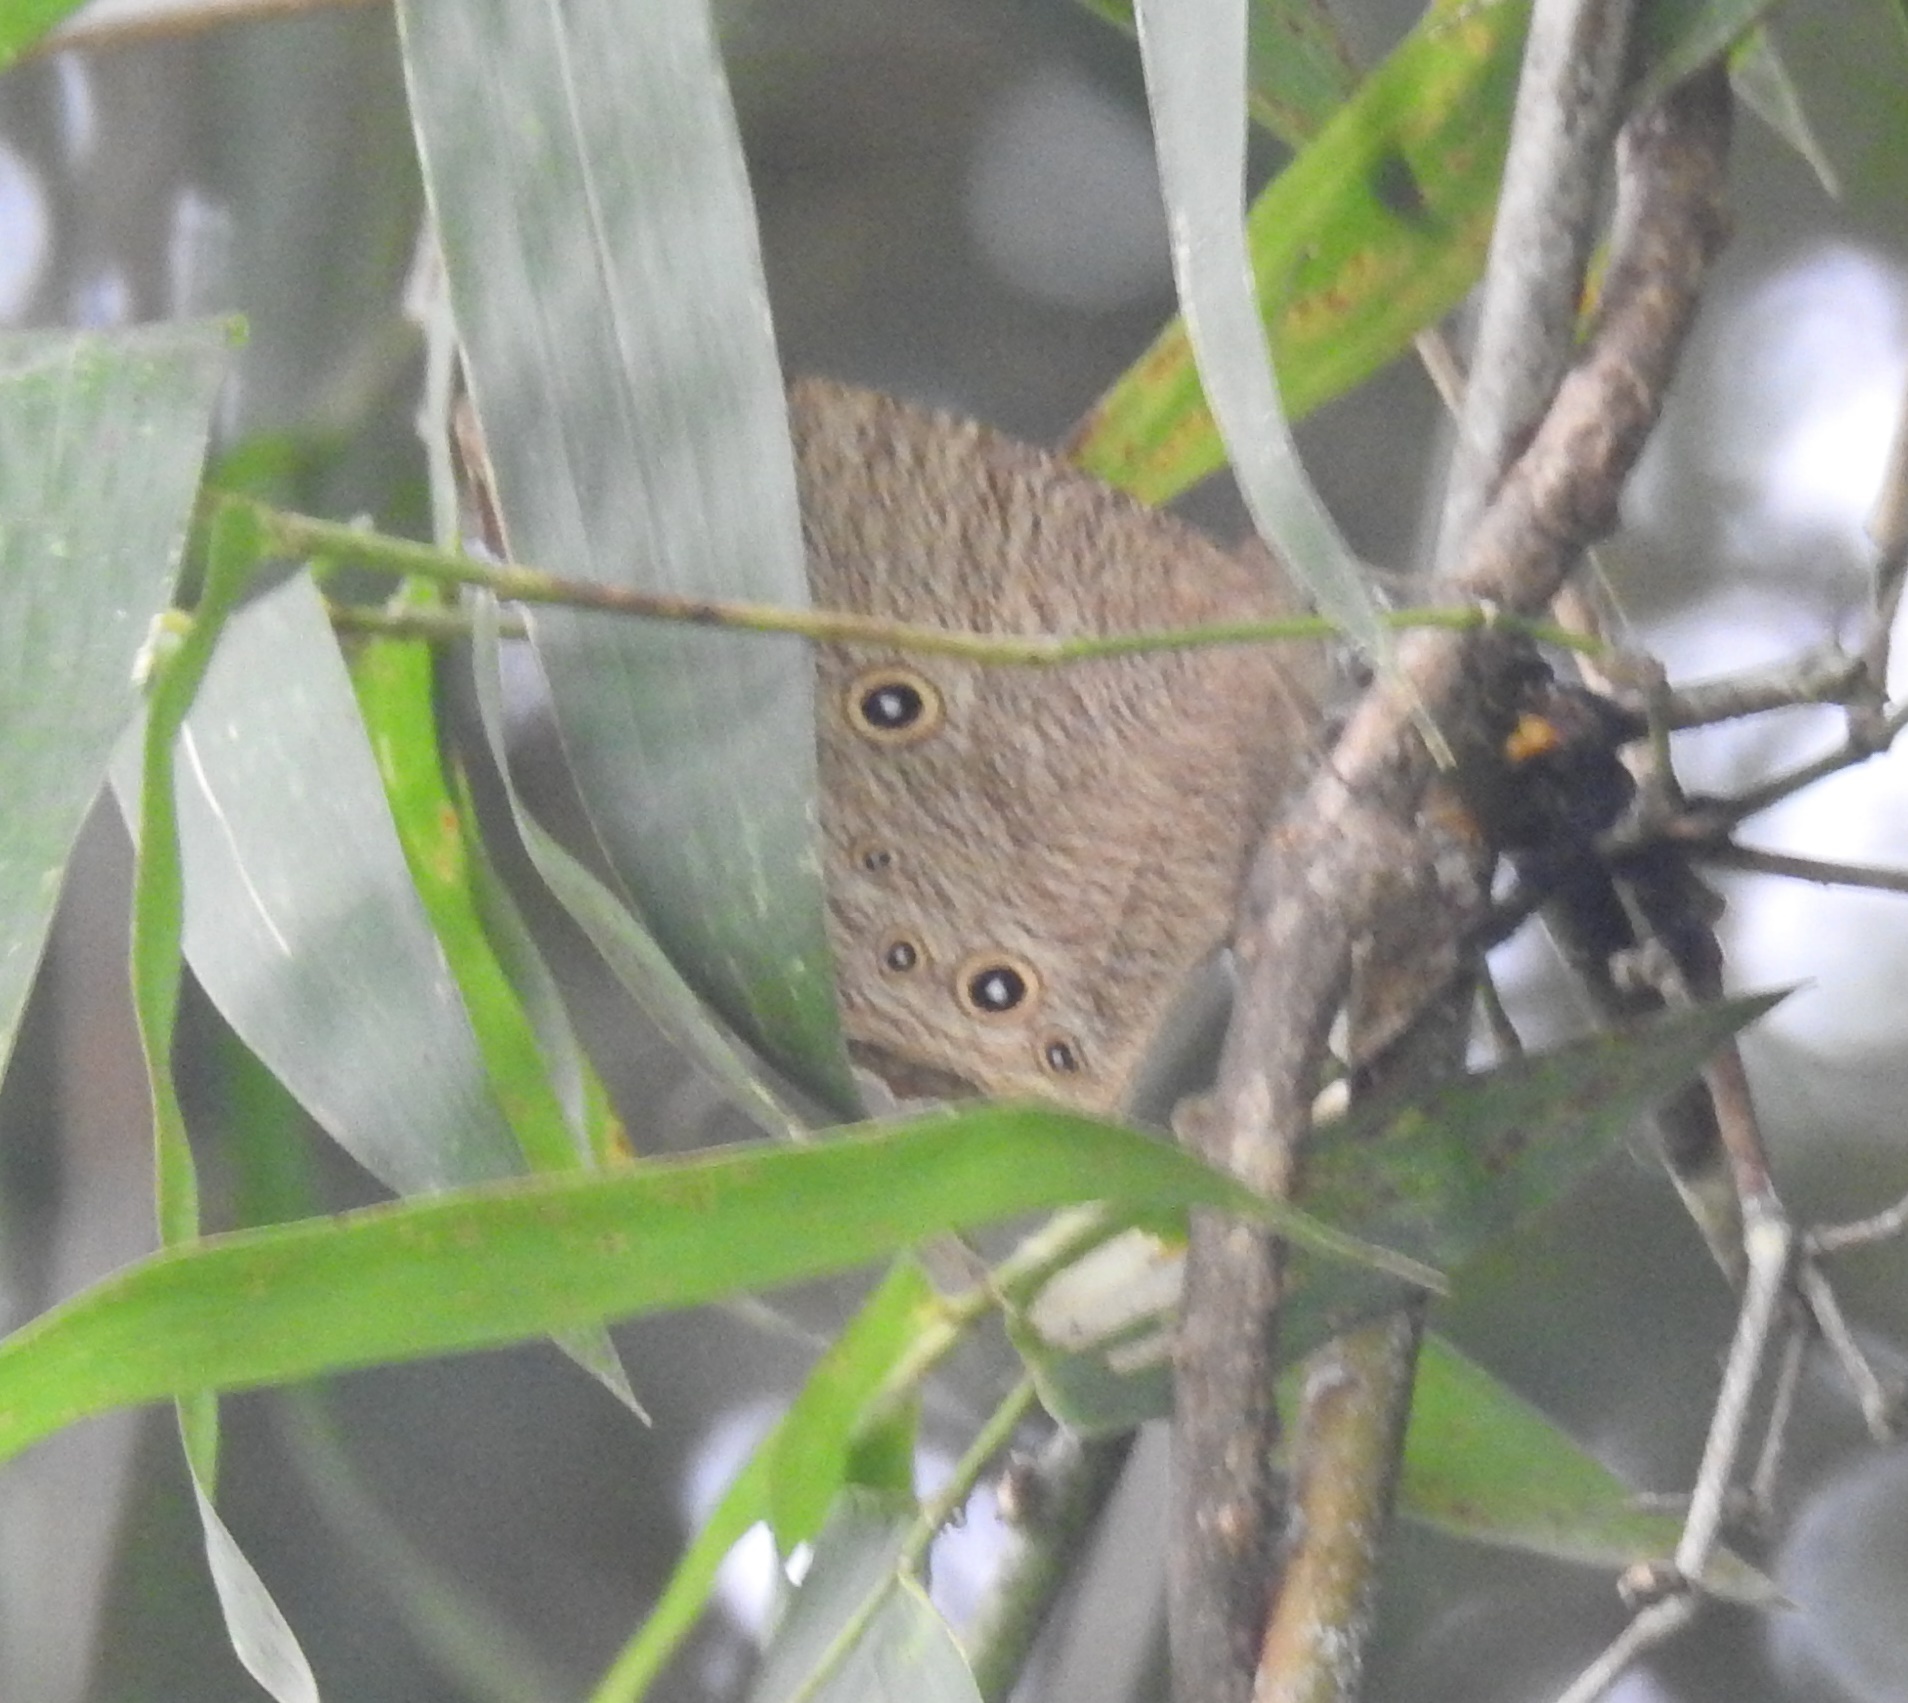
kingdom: Animalia
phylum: Arthropoda
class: Insecta
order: Lepidoptera
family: Nymphalidae
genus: Melanitis
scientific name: Melanitis leda
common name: Twilight brown
